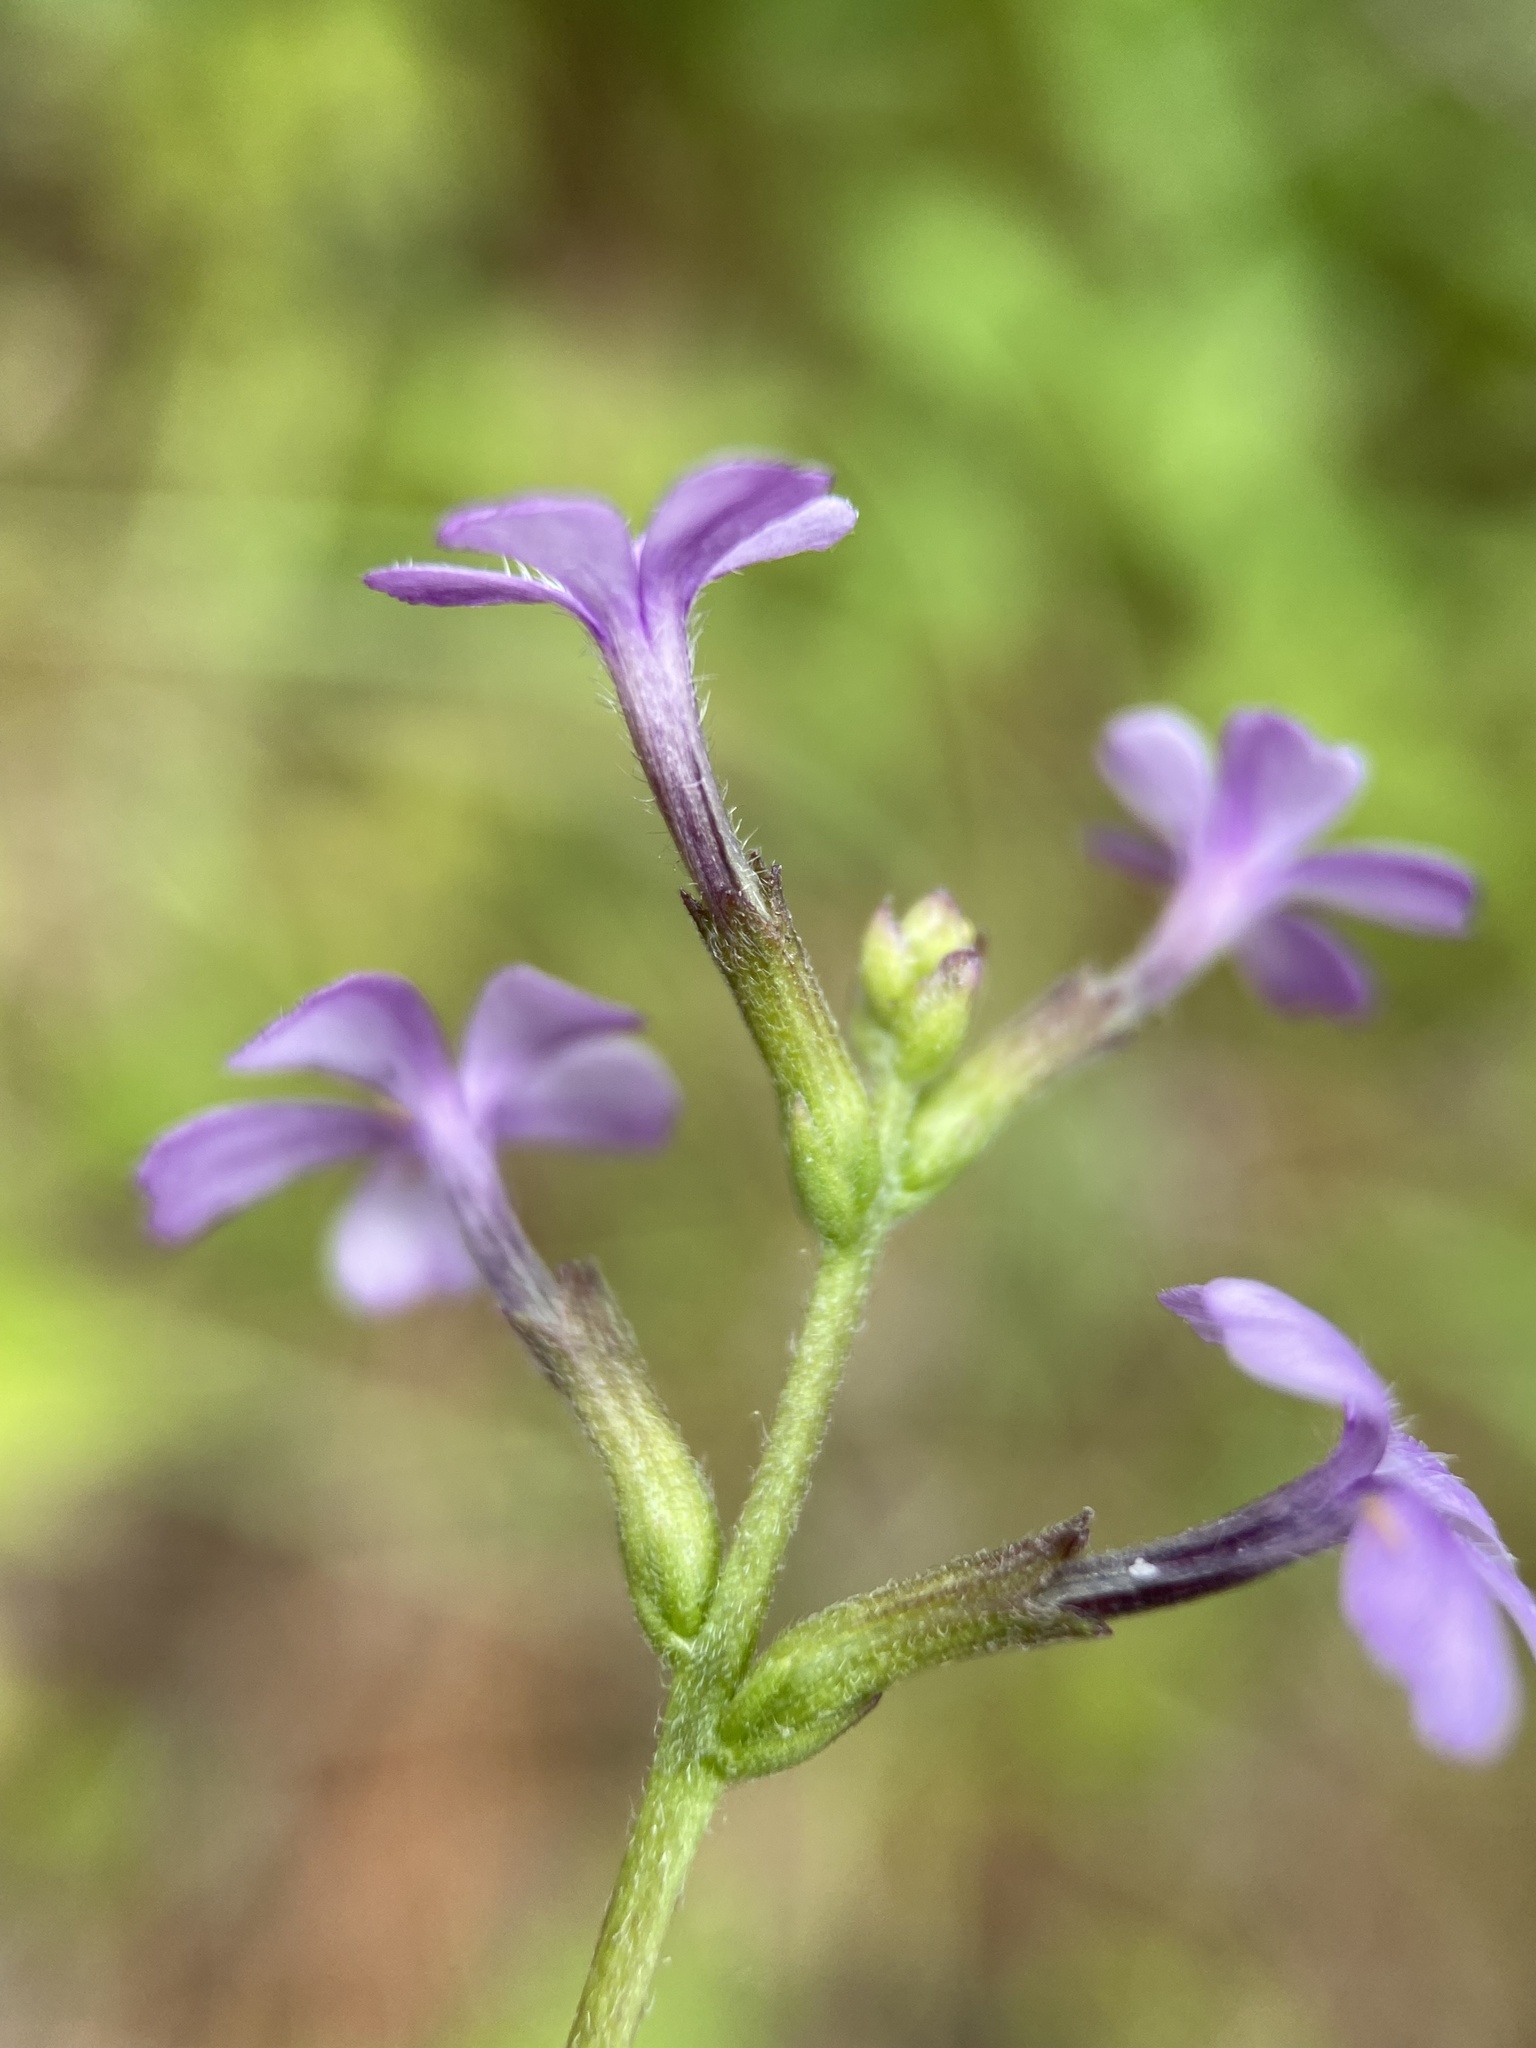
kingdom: Plantae
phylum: Tracheophyta
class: Magnoliopsida
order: Lamiales
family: Orobanchaceae
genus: Buchnera
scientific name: Buchnera floridana
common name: Florida bluehearts
